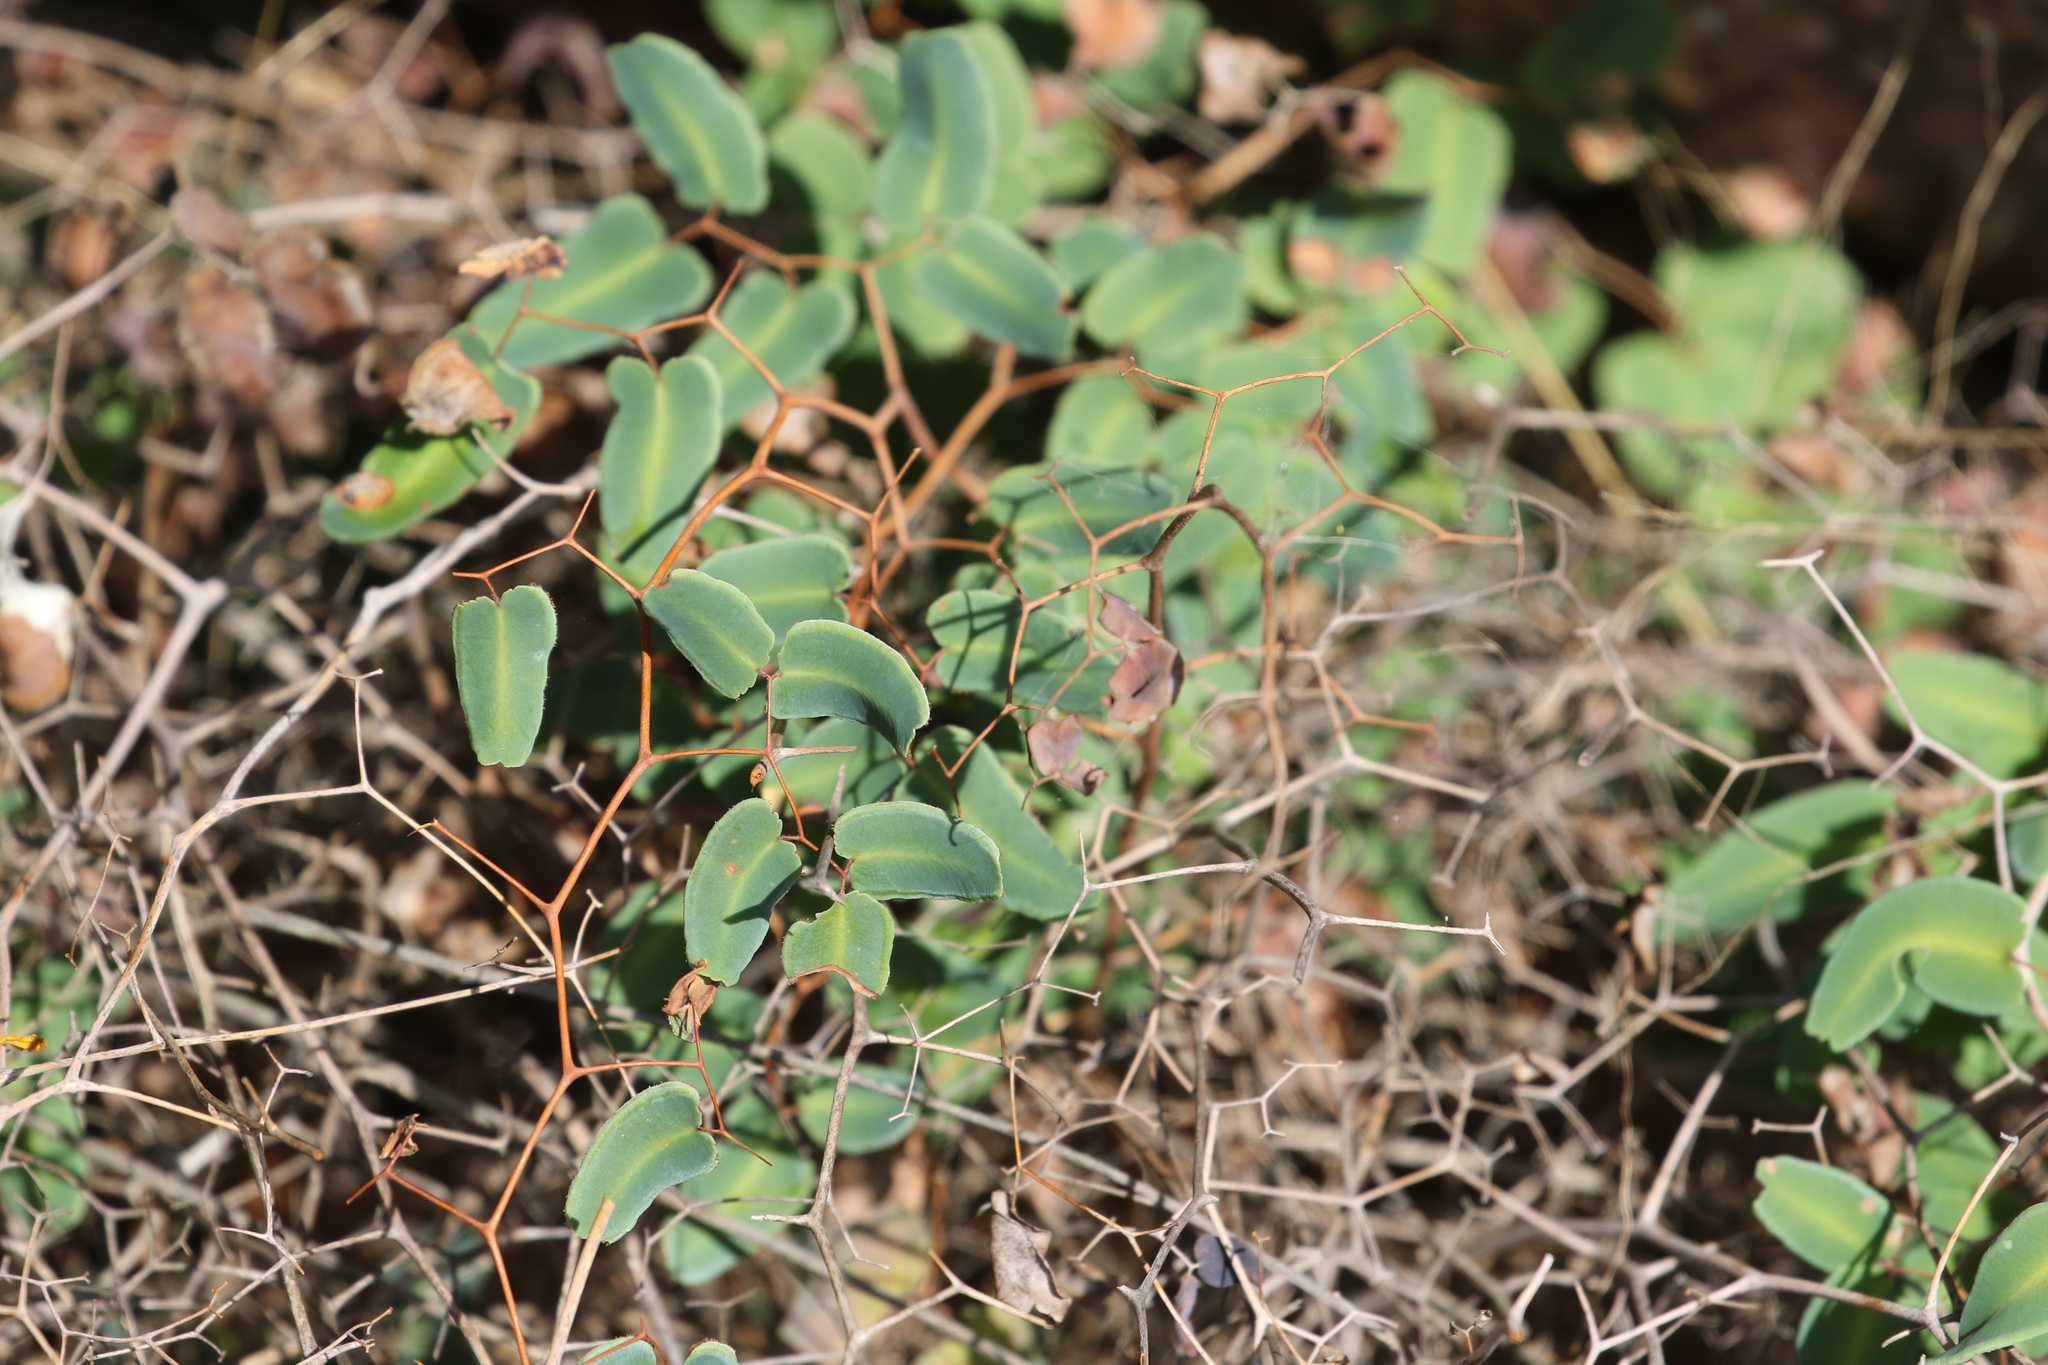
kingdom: Plantae
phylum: Tracheophyta
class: Polypodiopsida
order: Polypodiales
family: Pteridaceae
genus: Pellaea
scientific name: Pellaea ovata
